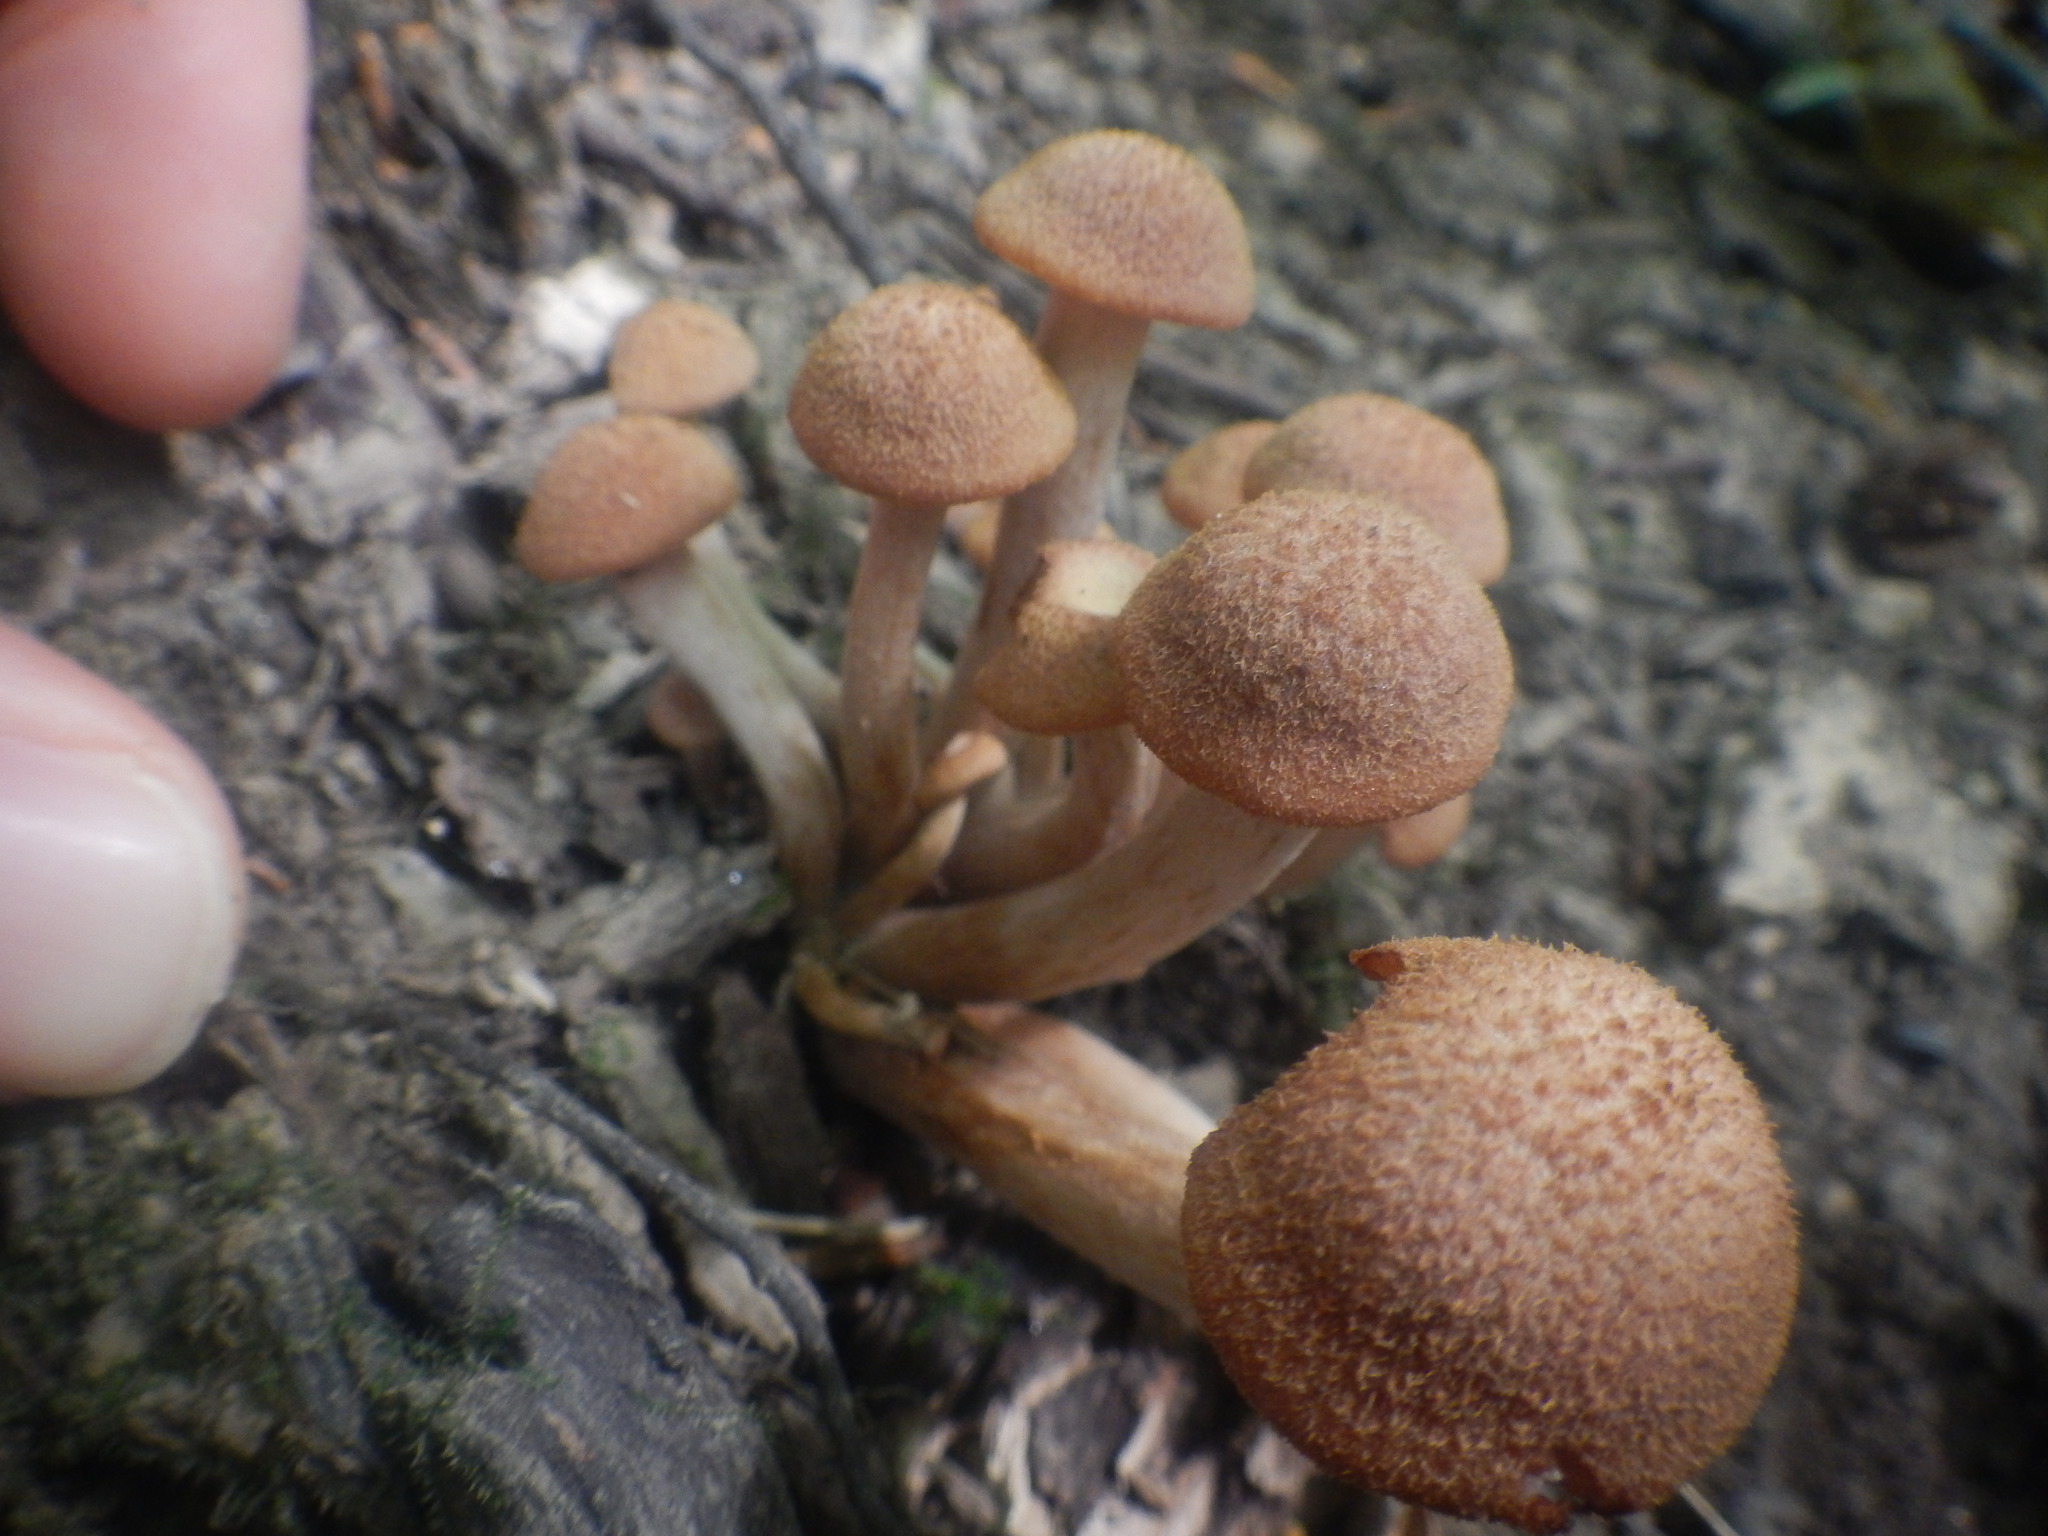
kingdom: Fungi
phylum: Basidiomycota
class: Agaricomycetes
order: Agaricales
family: Physalacriaceae
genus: Desarmillaria
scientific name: Desarmillaria caespitosa
